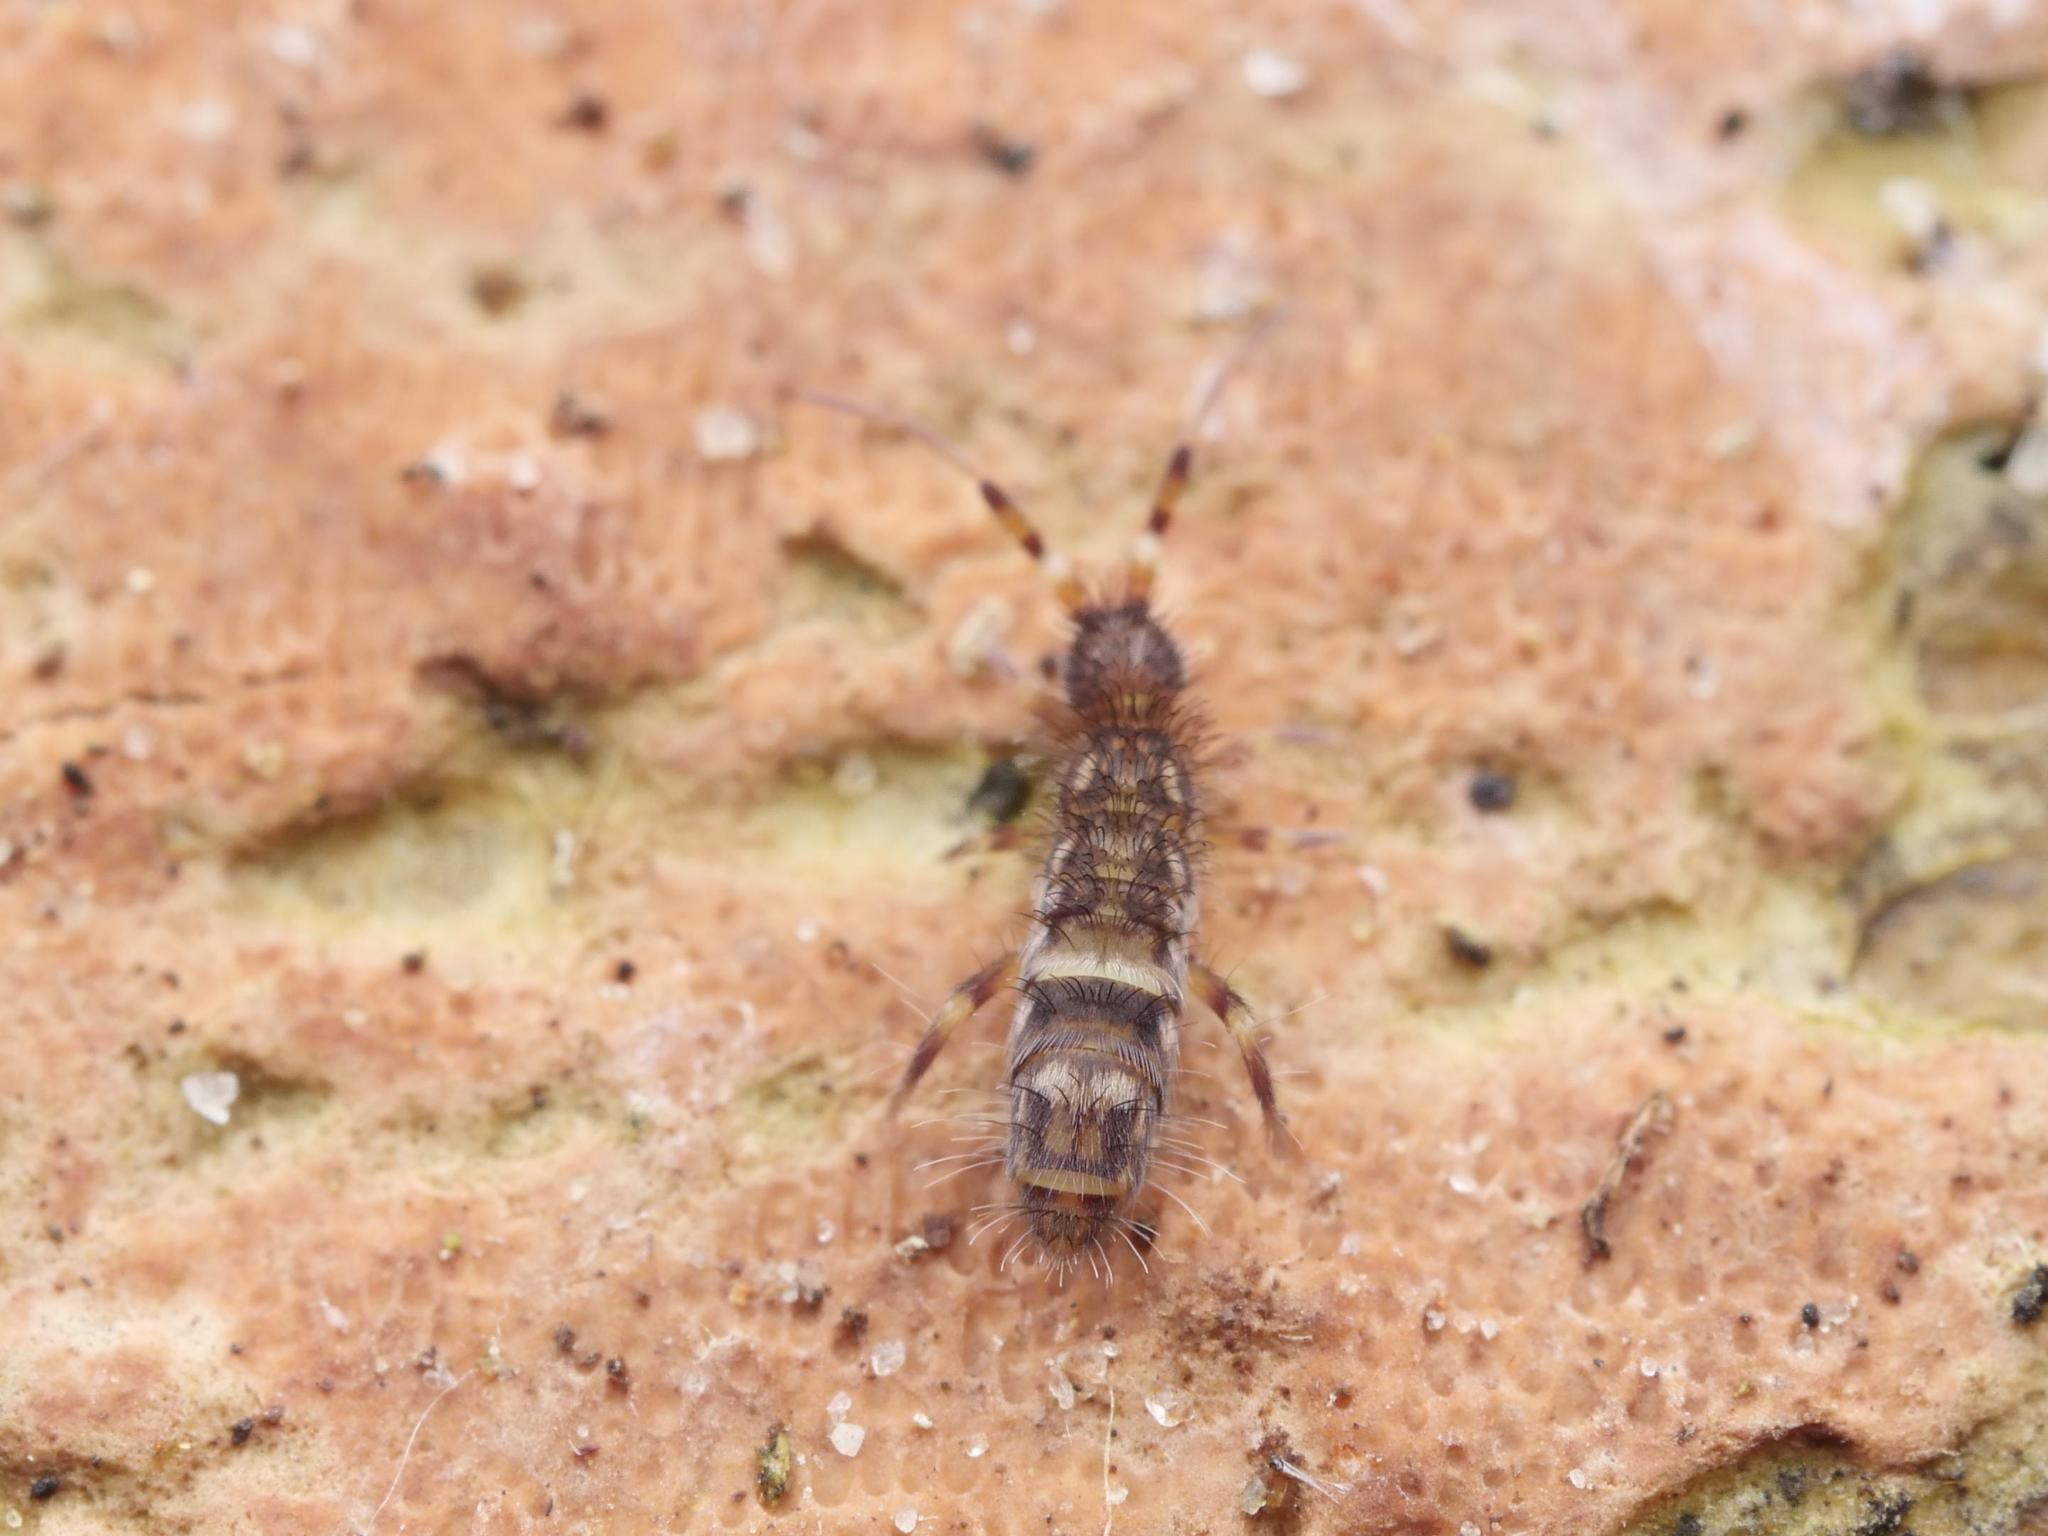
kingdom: Animalia
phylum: Arthropoda
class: Collembola
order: Entomobryomorpha
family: Orchesellidae
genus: Orchesella
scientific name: Orchesella cincta
